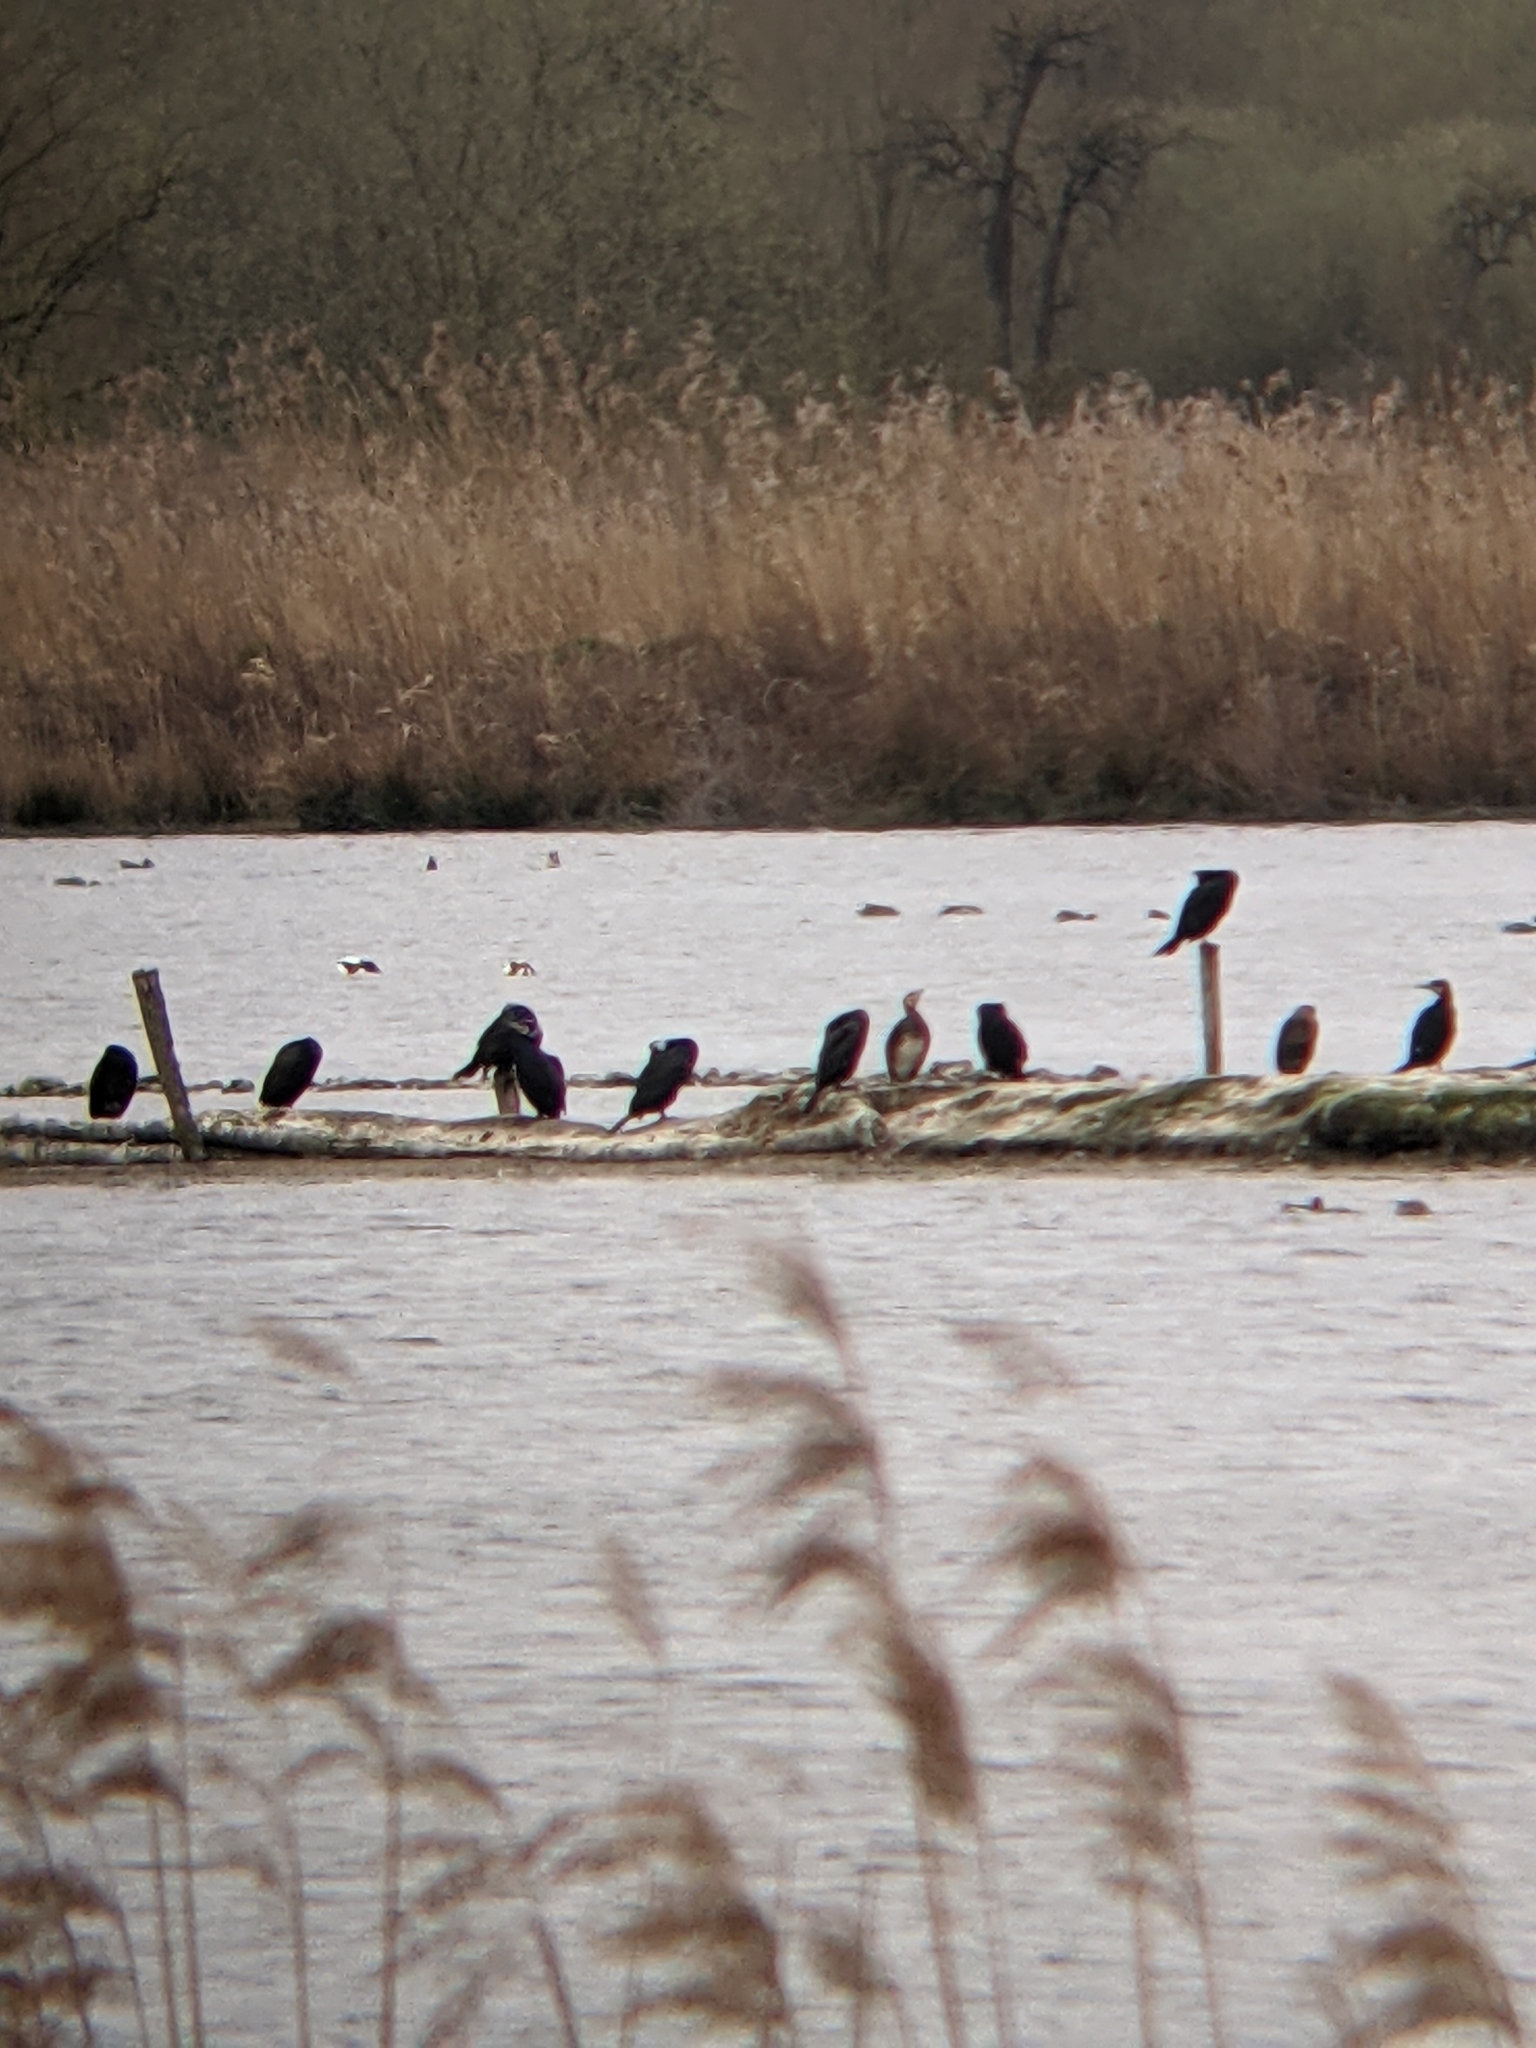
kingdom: Animalia
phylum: Chordata
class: Aves
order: Suliformes
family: Phalacrocoracidae
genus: Phalacrocorax
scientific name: Phalacrocorax carbo
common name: Great cormorant
